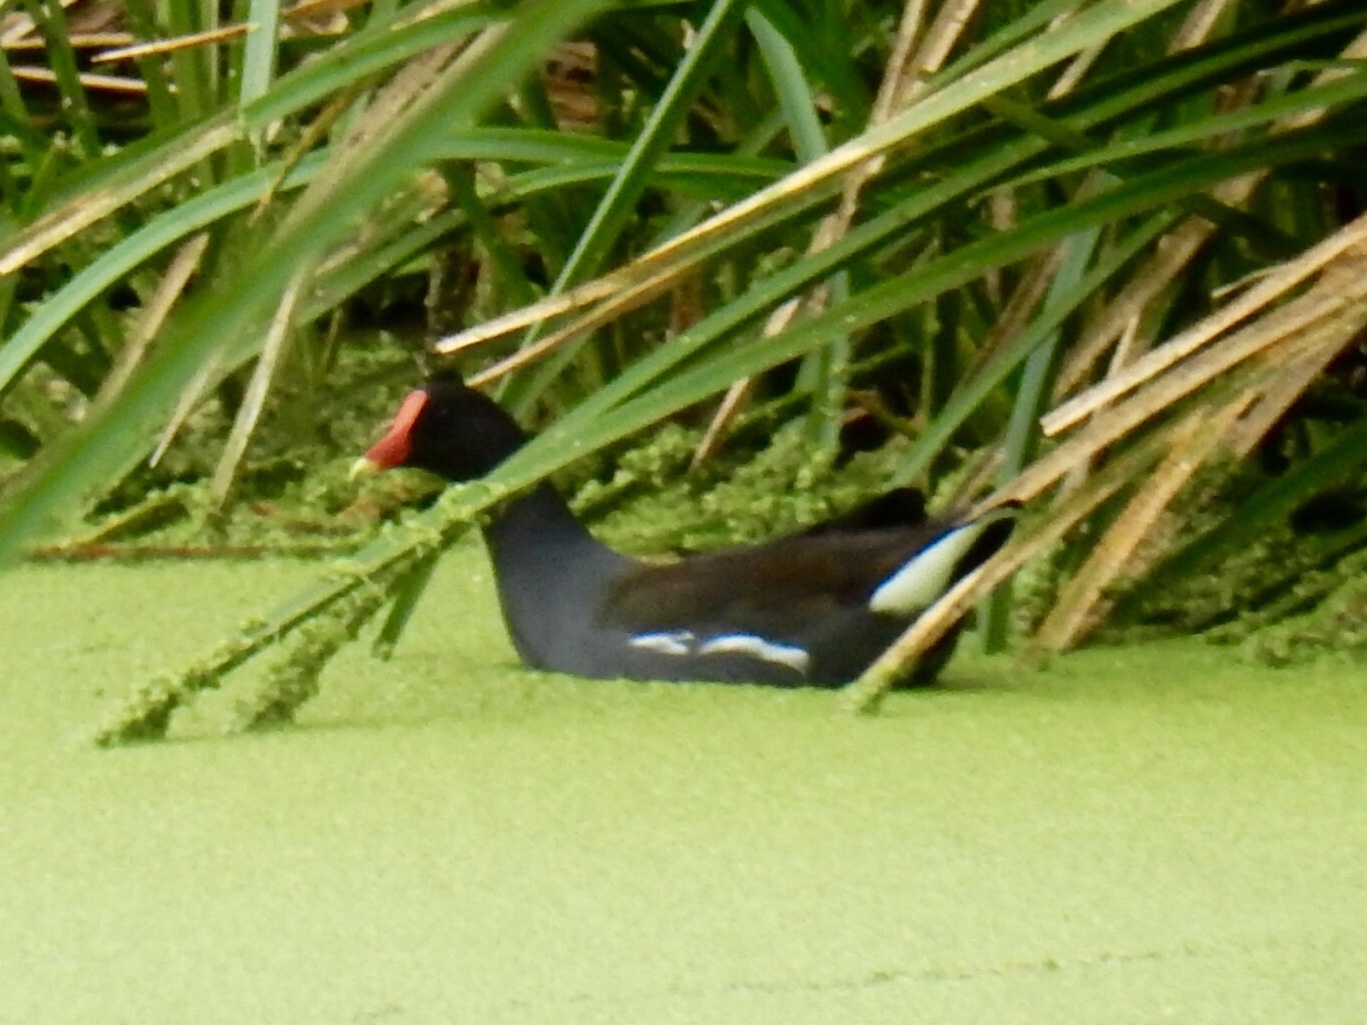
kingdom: Animalia
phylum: Chordata
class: Aves
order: Gruiformes
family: Rallidae
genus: Gallinula
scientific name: Gallinula chloropus
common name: Common moorhen
